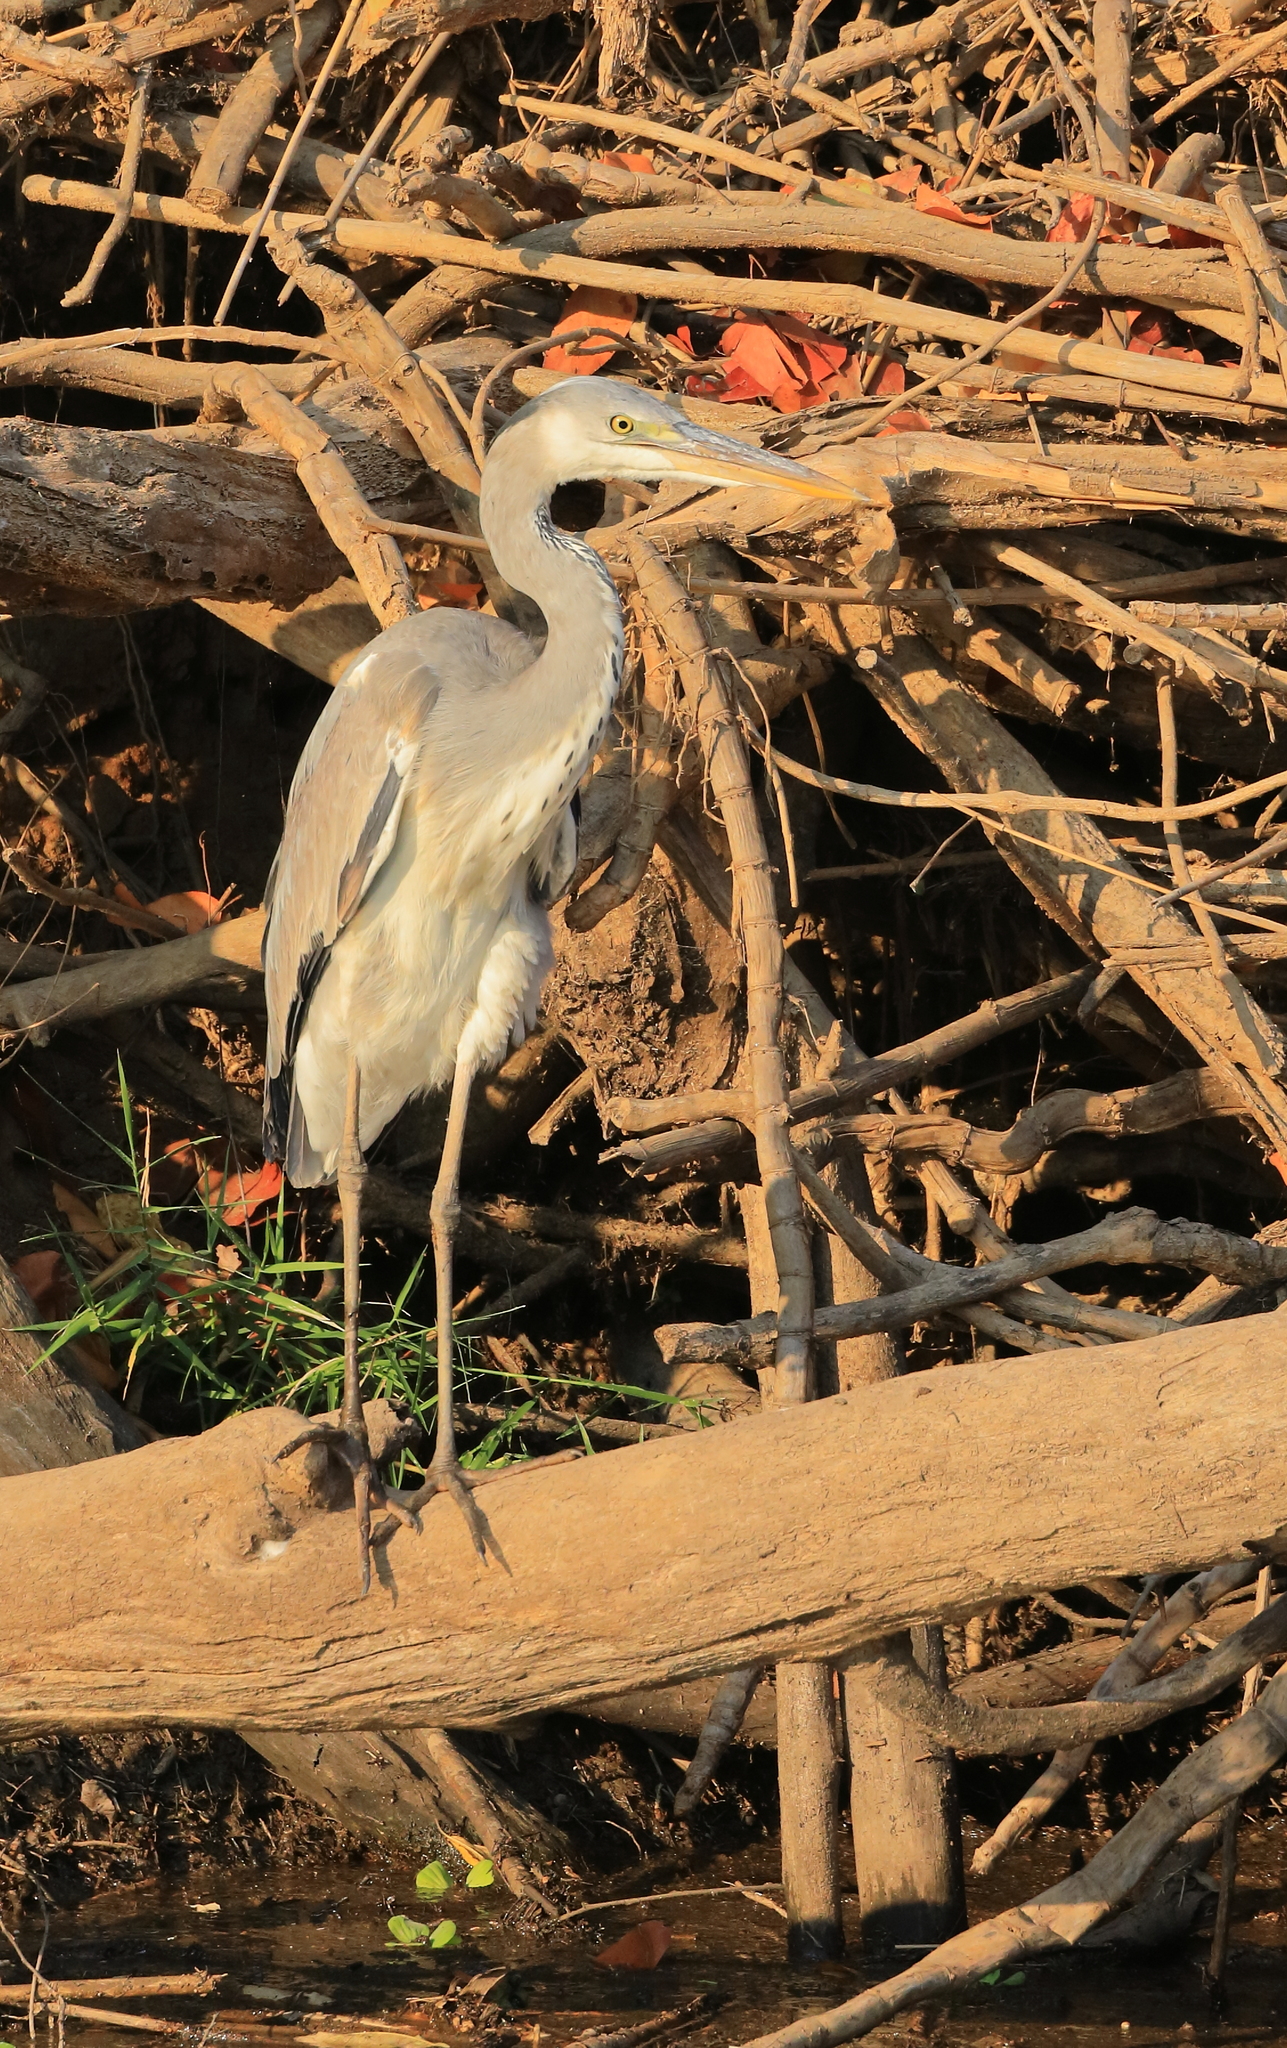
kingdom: Animalia
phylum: Chordata
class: Aves
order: Pelecaniformes
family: Ardeidae
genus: Ardea
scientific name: Ardea cinerea
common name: Grey heron
